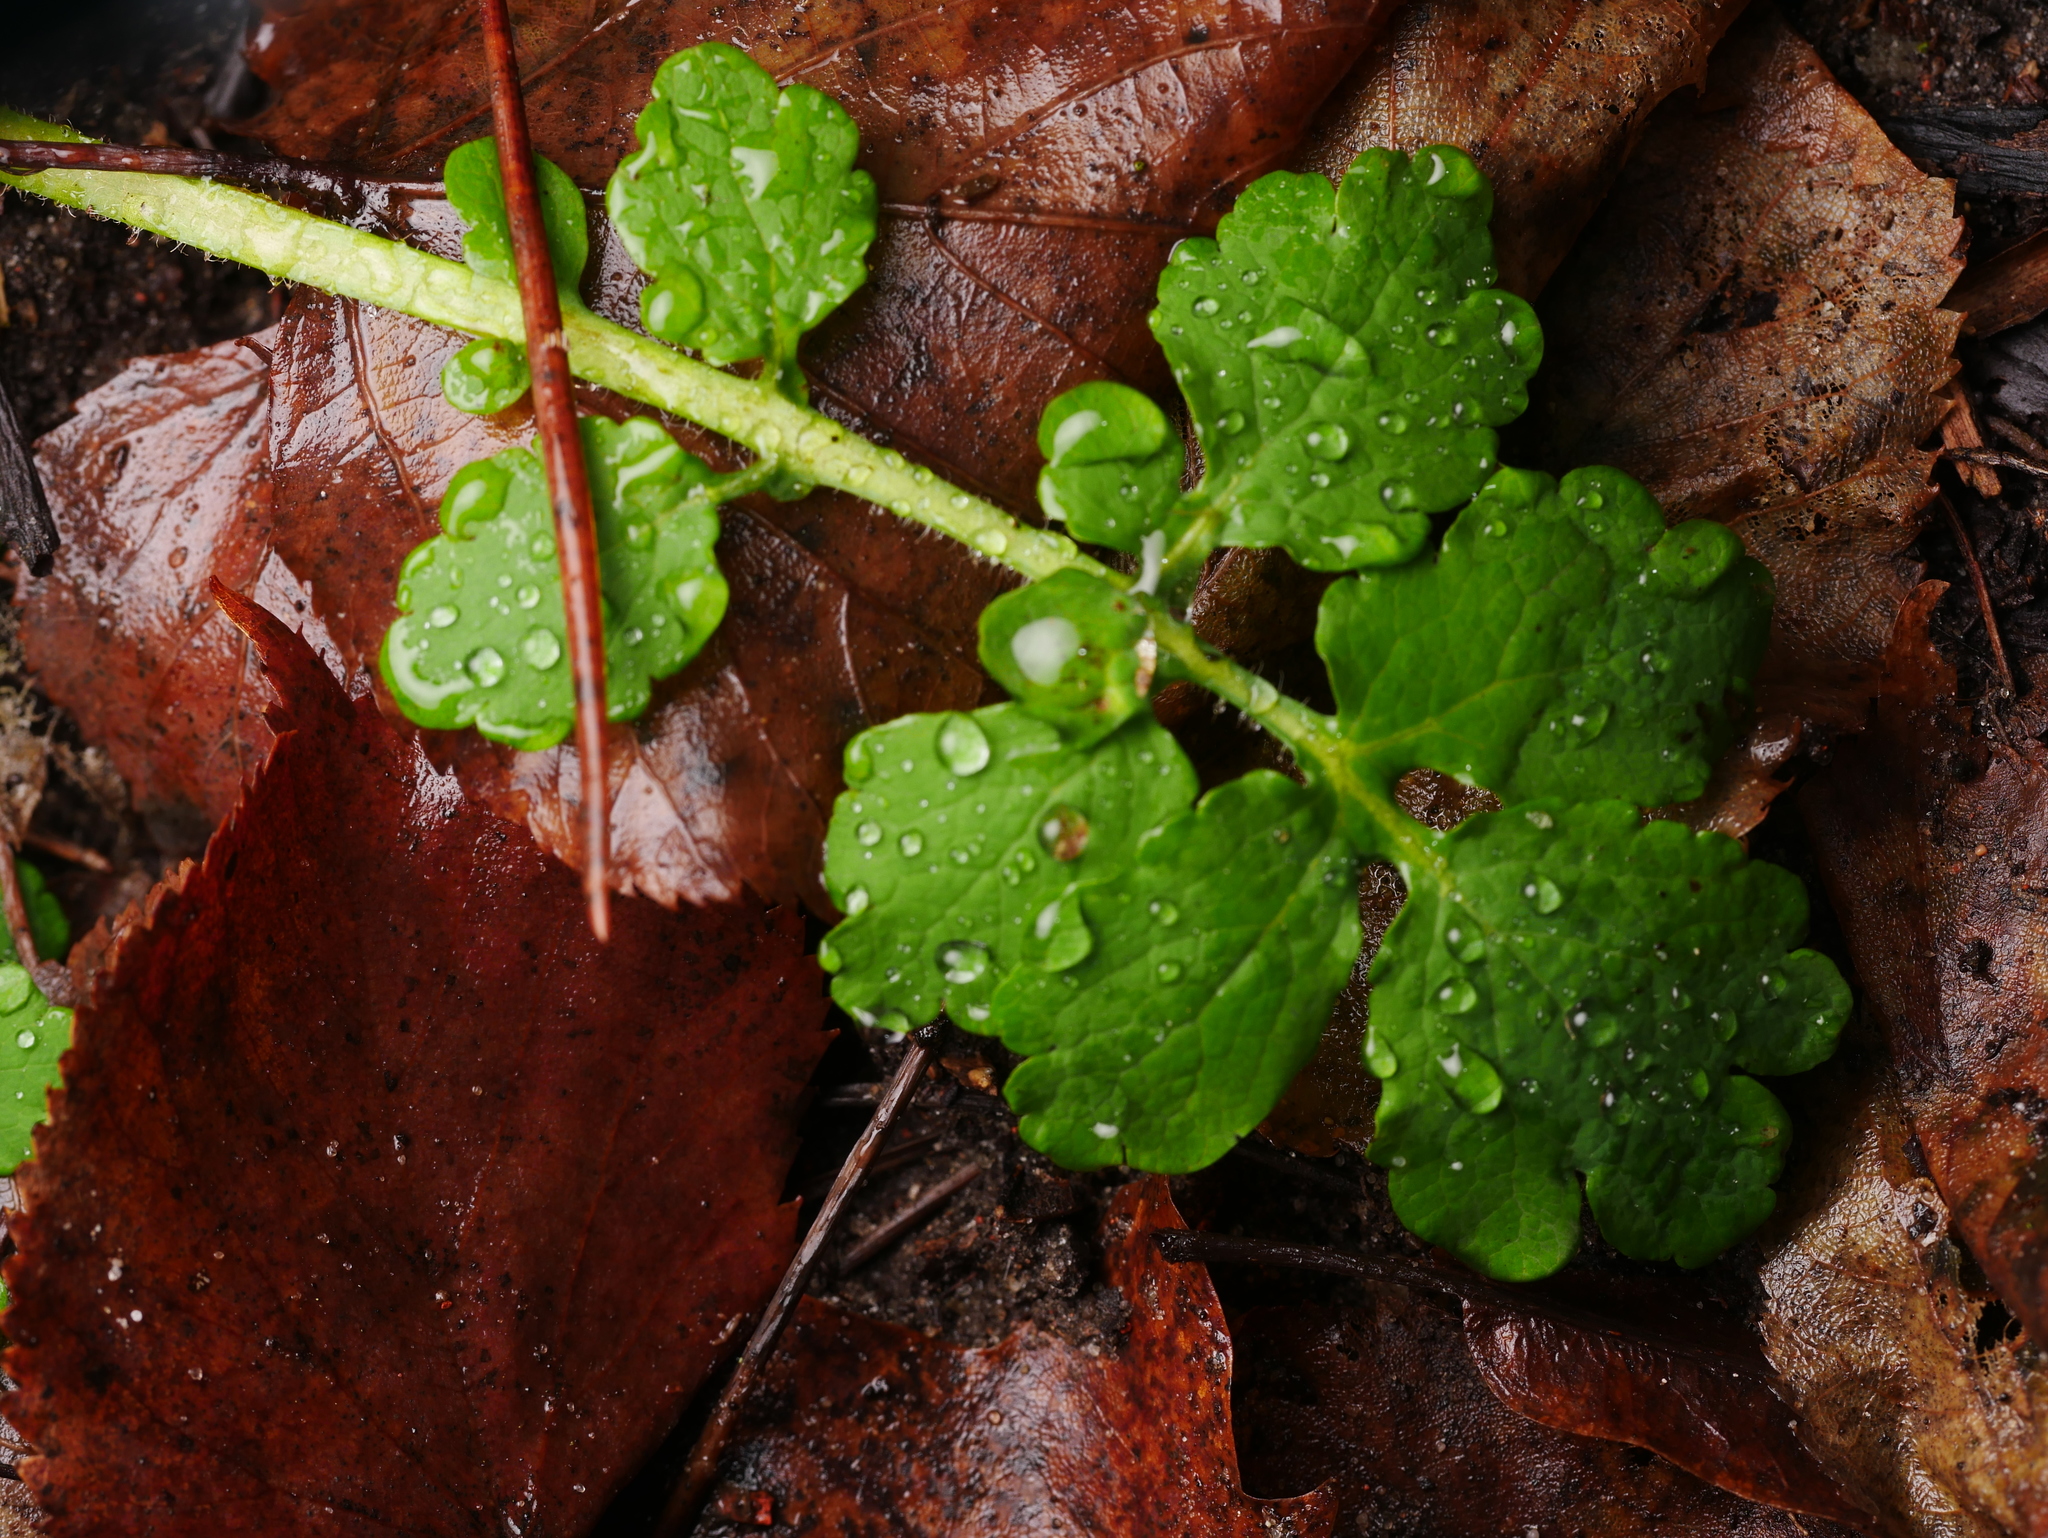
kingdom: Plantae
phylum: Tracheophyta
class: Magnoliopsida
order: Ranunculales
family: Papaveraceae
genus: Chelidonium
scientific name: Chelidonium majus
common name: Greater celandine
